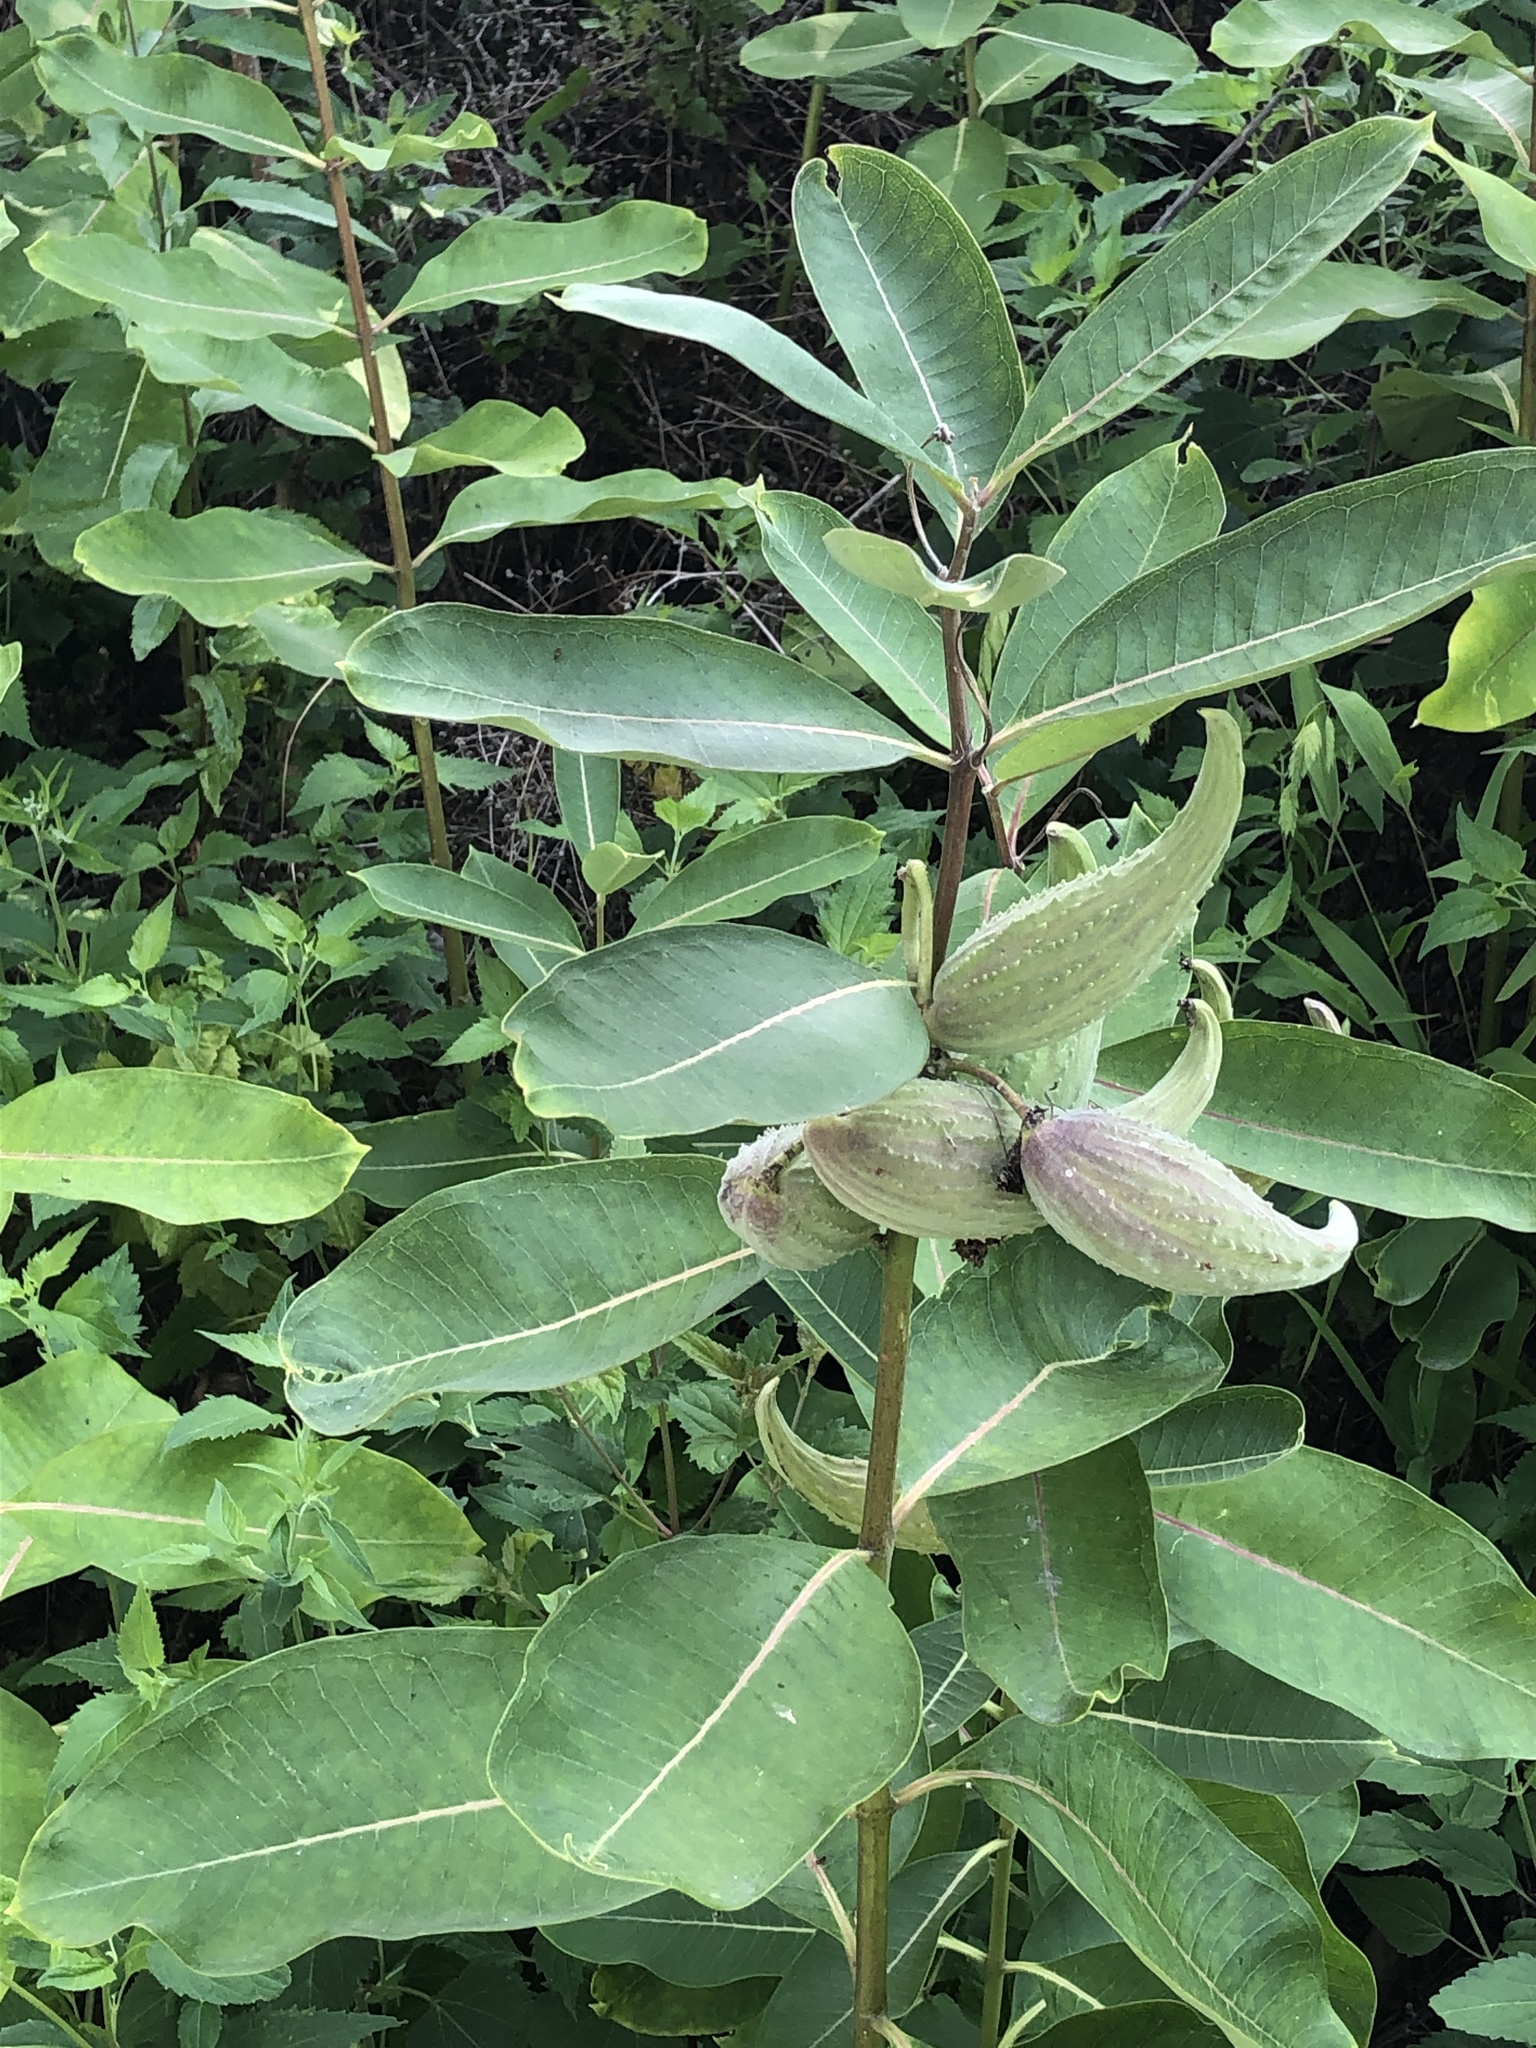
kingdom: Plantae
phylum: Tracheophyta
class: Magnoliopsida
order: Gentianales
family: Apocynaceae
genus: Asclepias
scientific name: Asclepias syriaca
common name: Common milkweed
